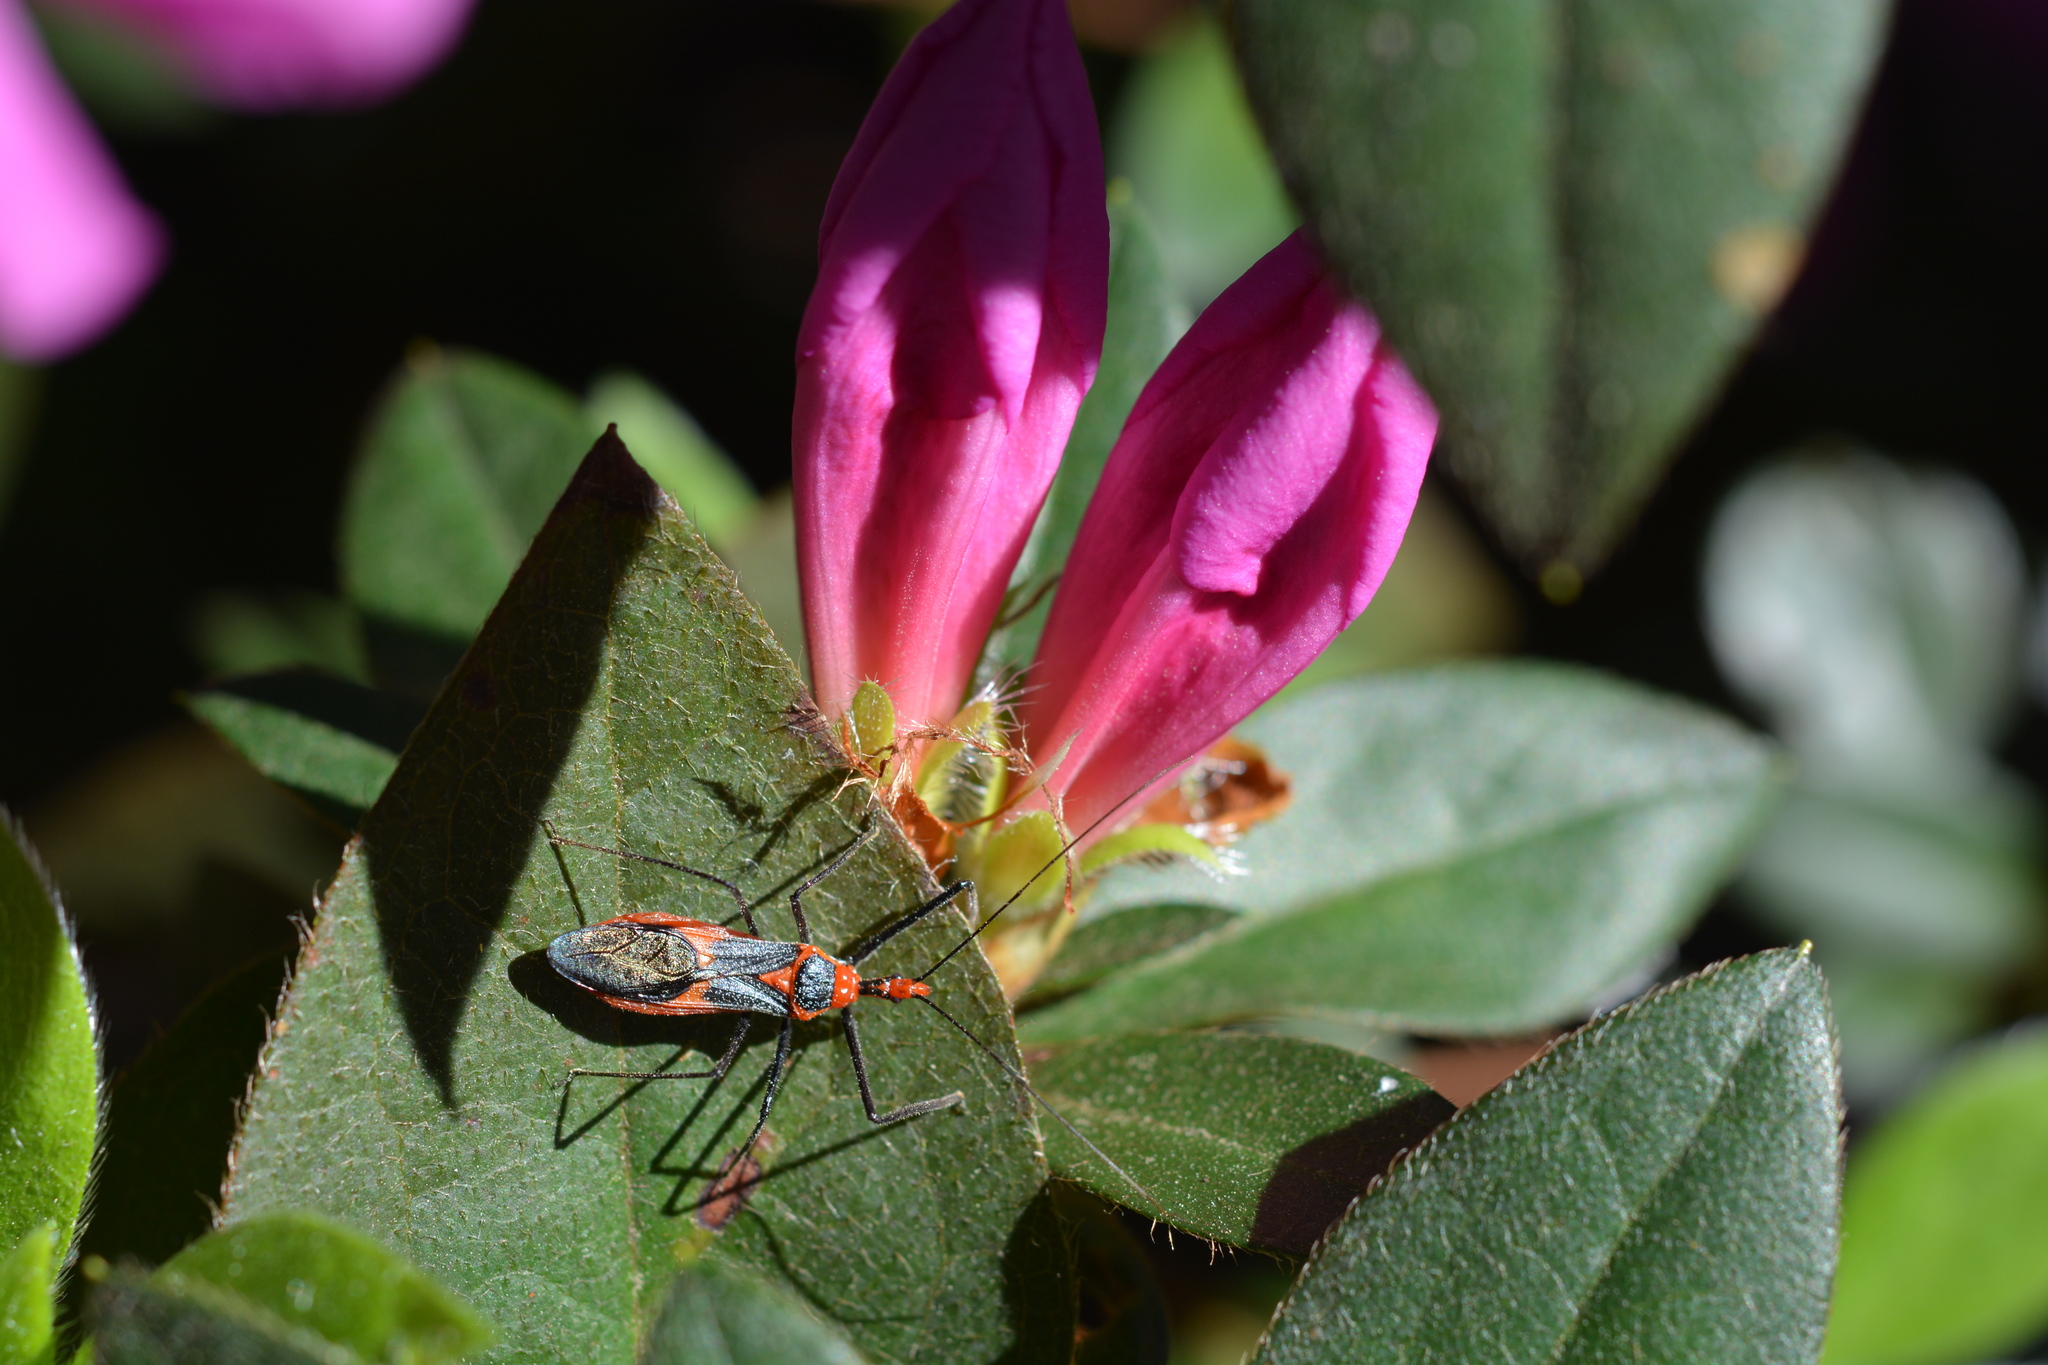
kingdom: Animalia
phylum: Arthropoda
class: Insecta
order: Hemiptera
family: Reduviidae
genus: Zelus
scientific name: Zelus longipes
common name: Milkweed assassin bug
